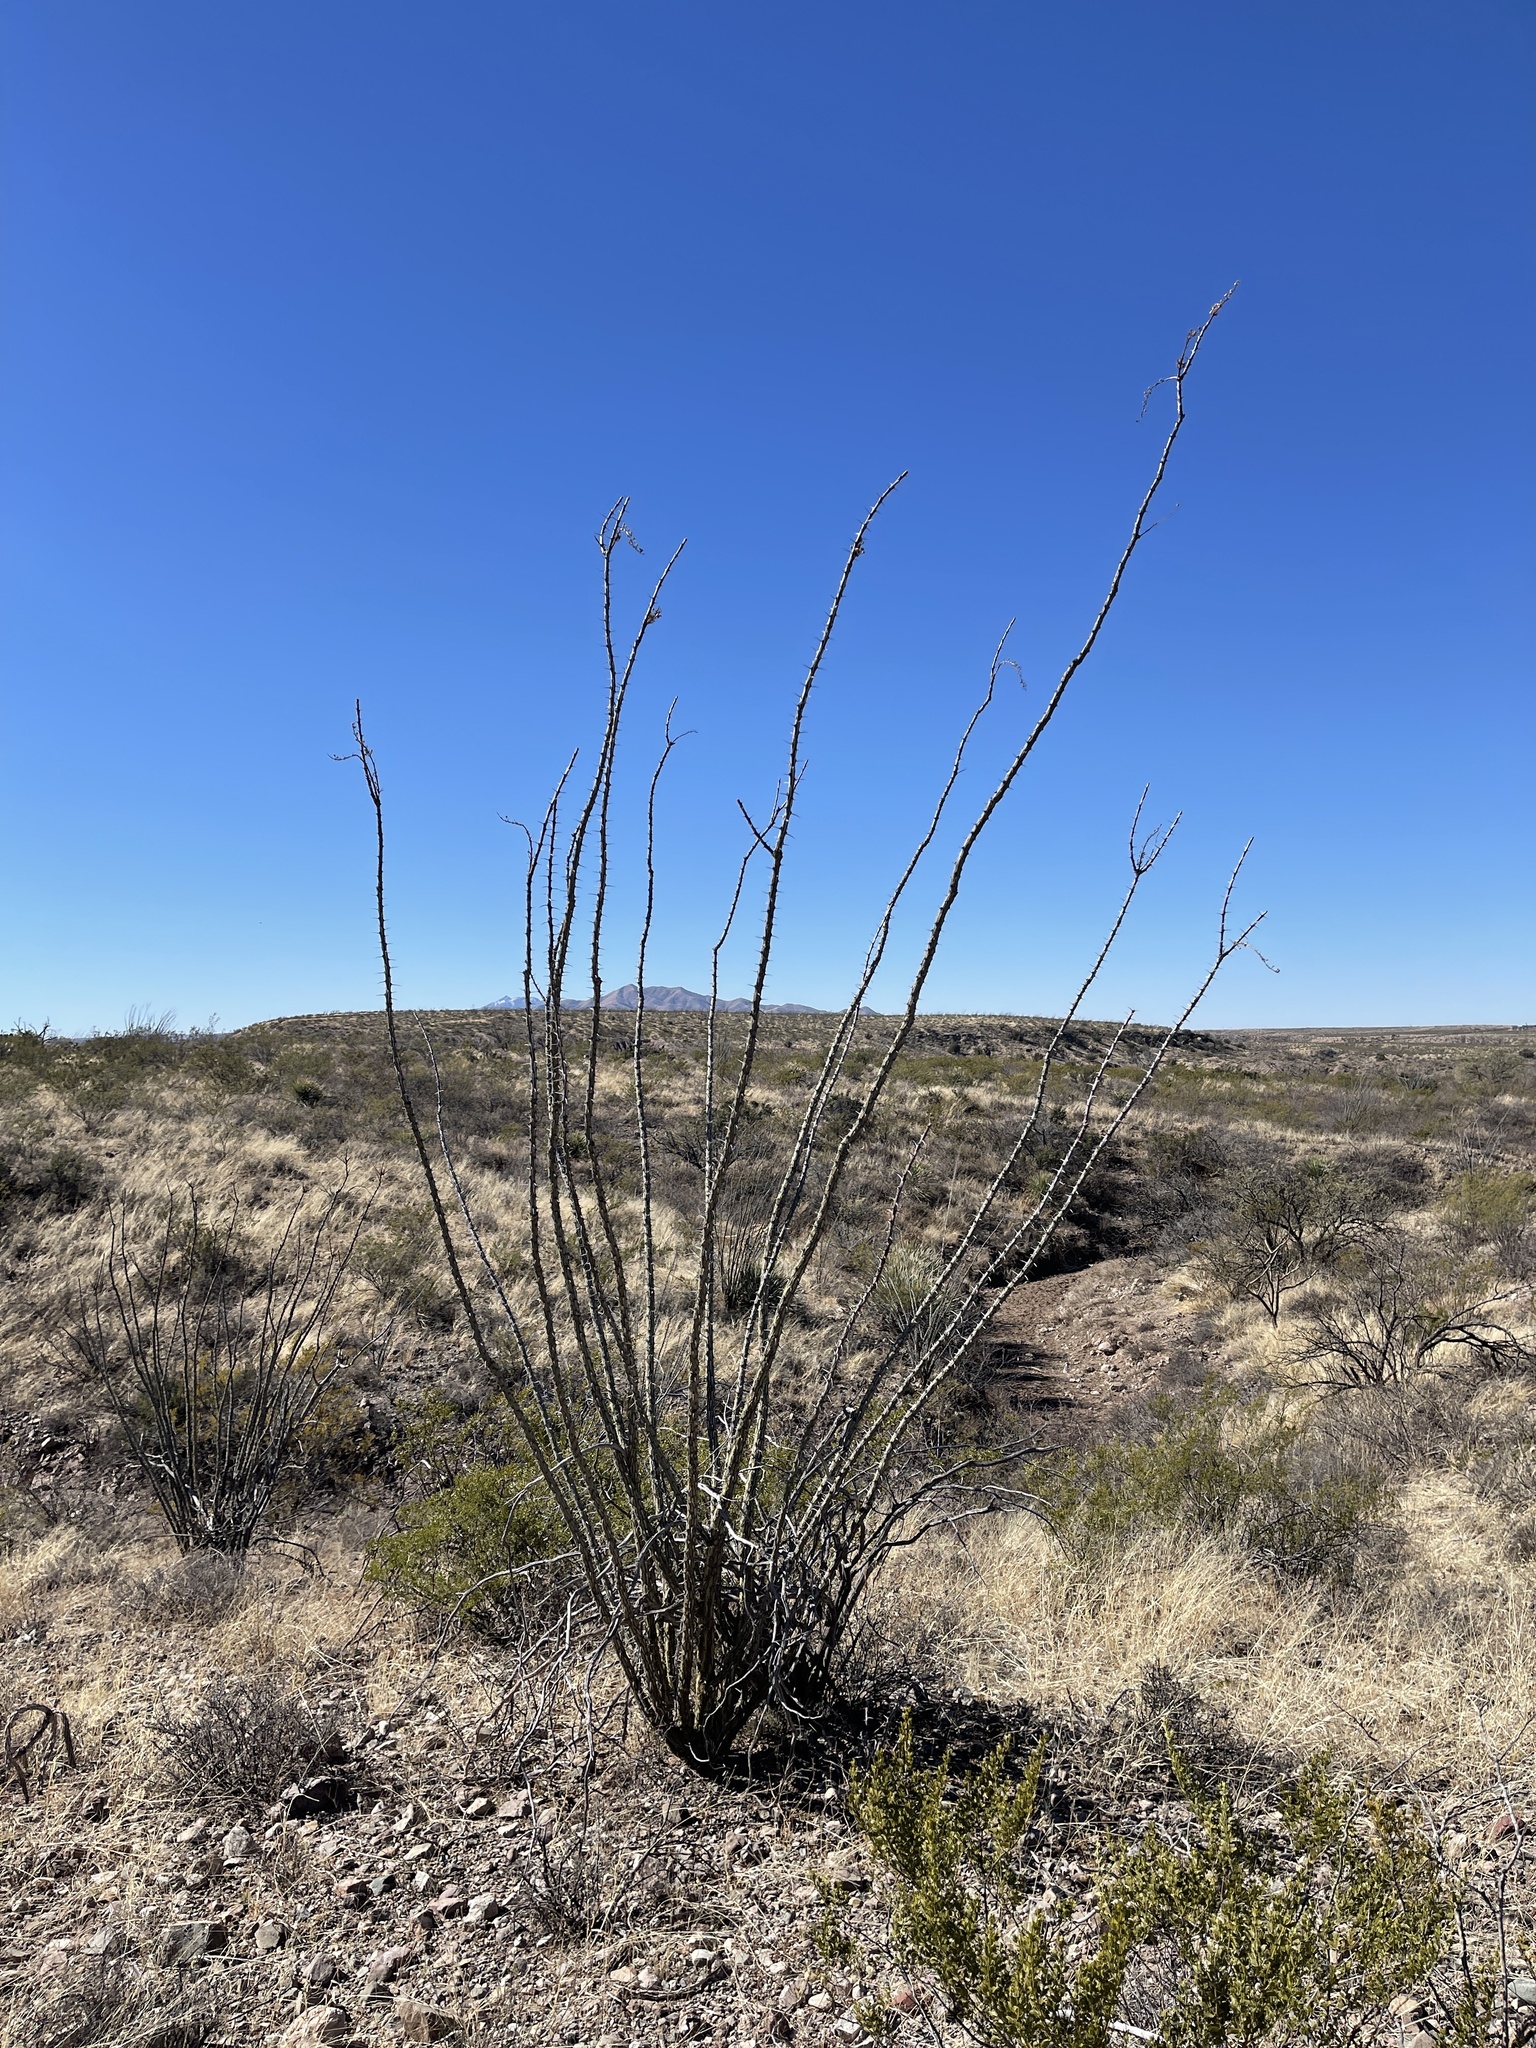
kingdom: Plantae
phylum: Tracheophyta
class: Magnoliopsida
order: Ericales
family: Fouquieriaceae
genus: Fouquieria
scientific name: Fouquieria splendens
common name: Vine-cactus
